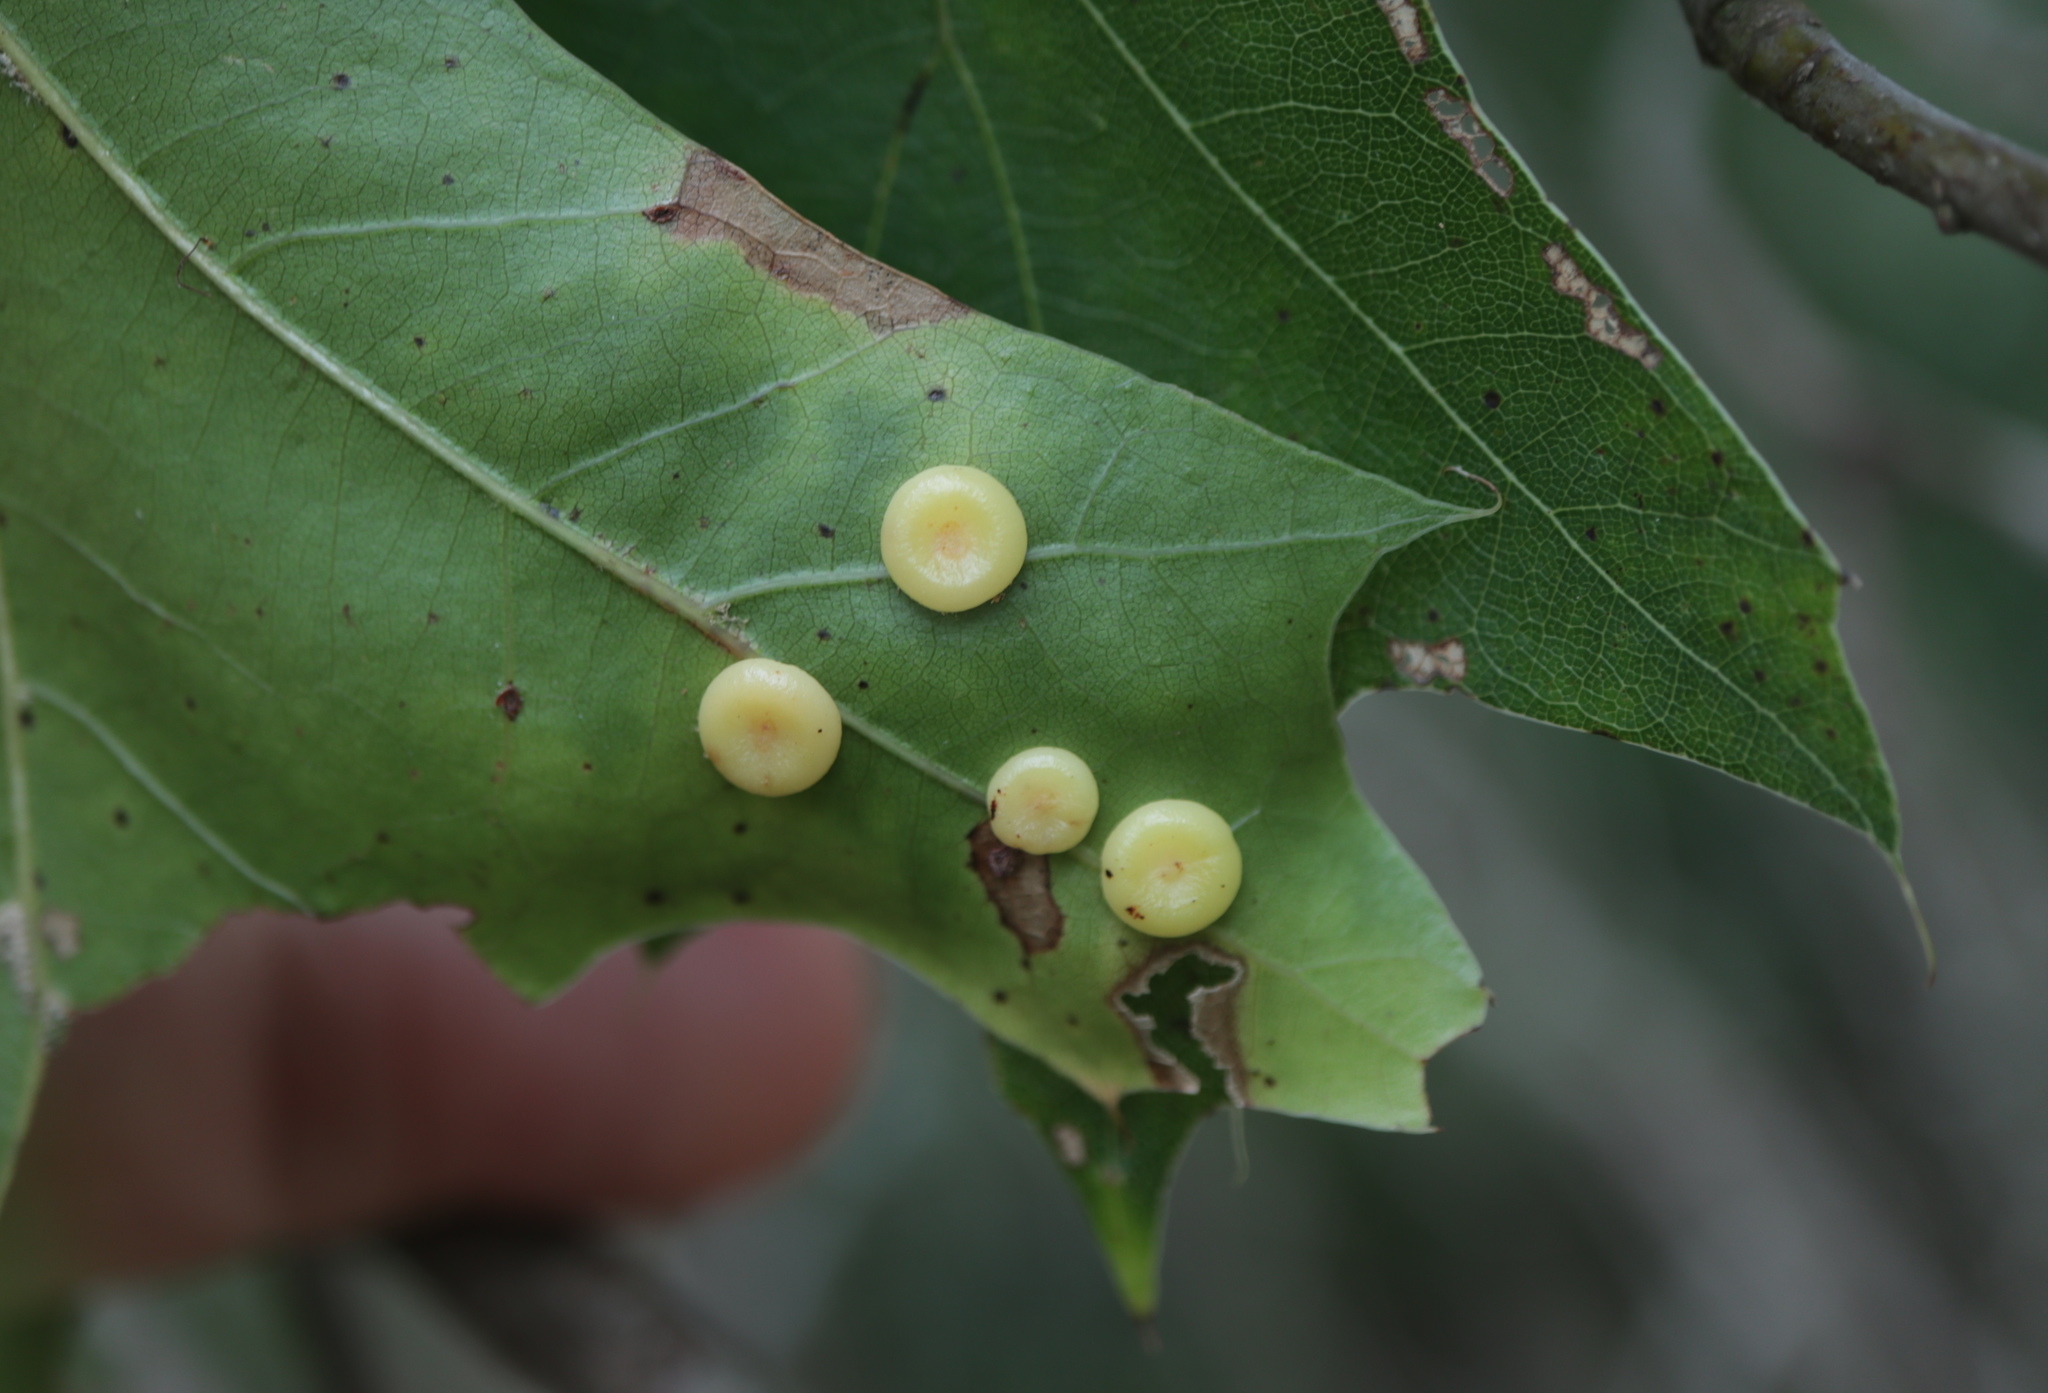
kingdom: Animalia
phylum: Arthropoda
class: Insecta
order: Hymenoptera
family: Cynipidae
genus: Dryocosmus
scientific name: Dryocosmus
